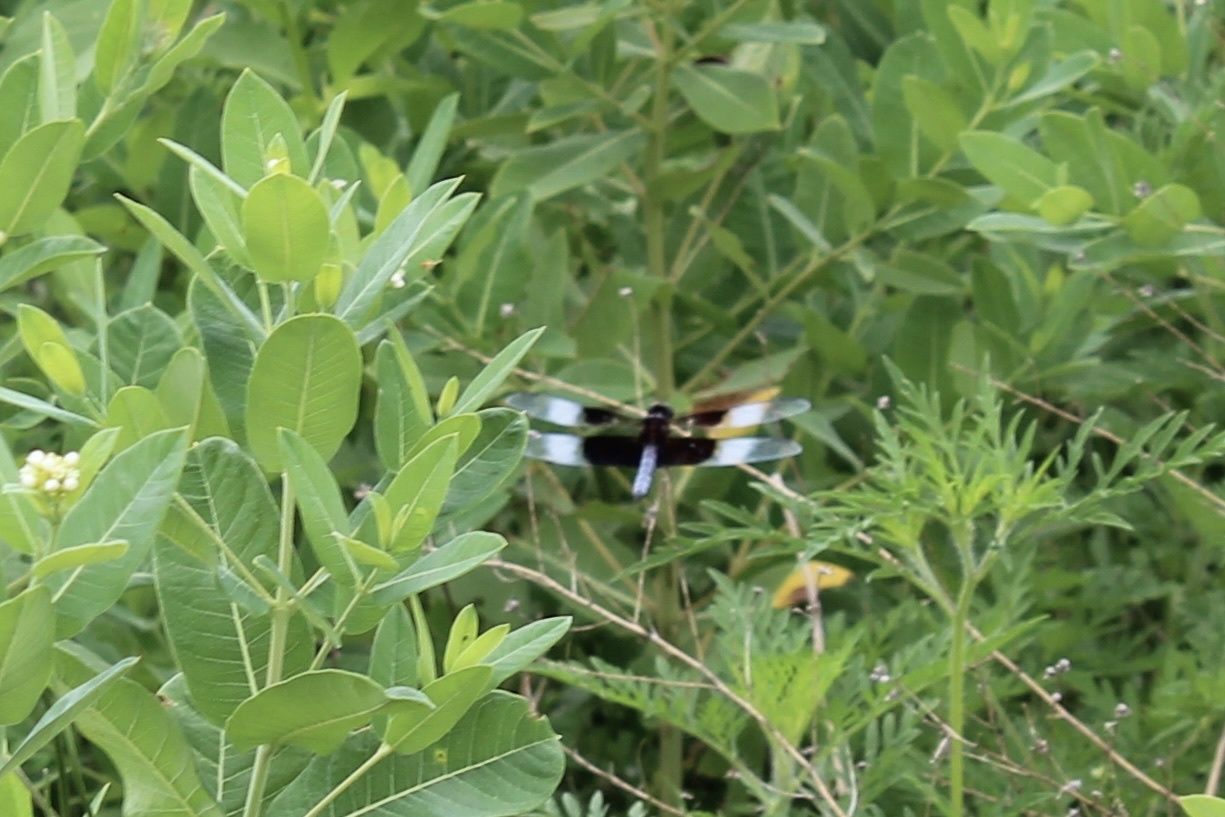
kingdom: Animalia
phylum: Arthropoda
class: Insecta
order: Odonata
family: Libellulidae
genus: Libellula
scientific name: Libellula luctuosa
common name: Widow skimmer
